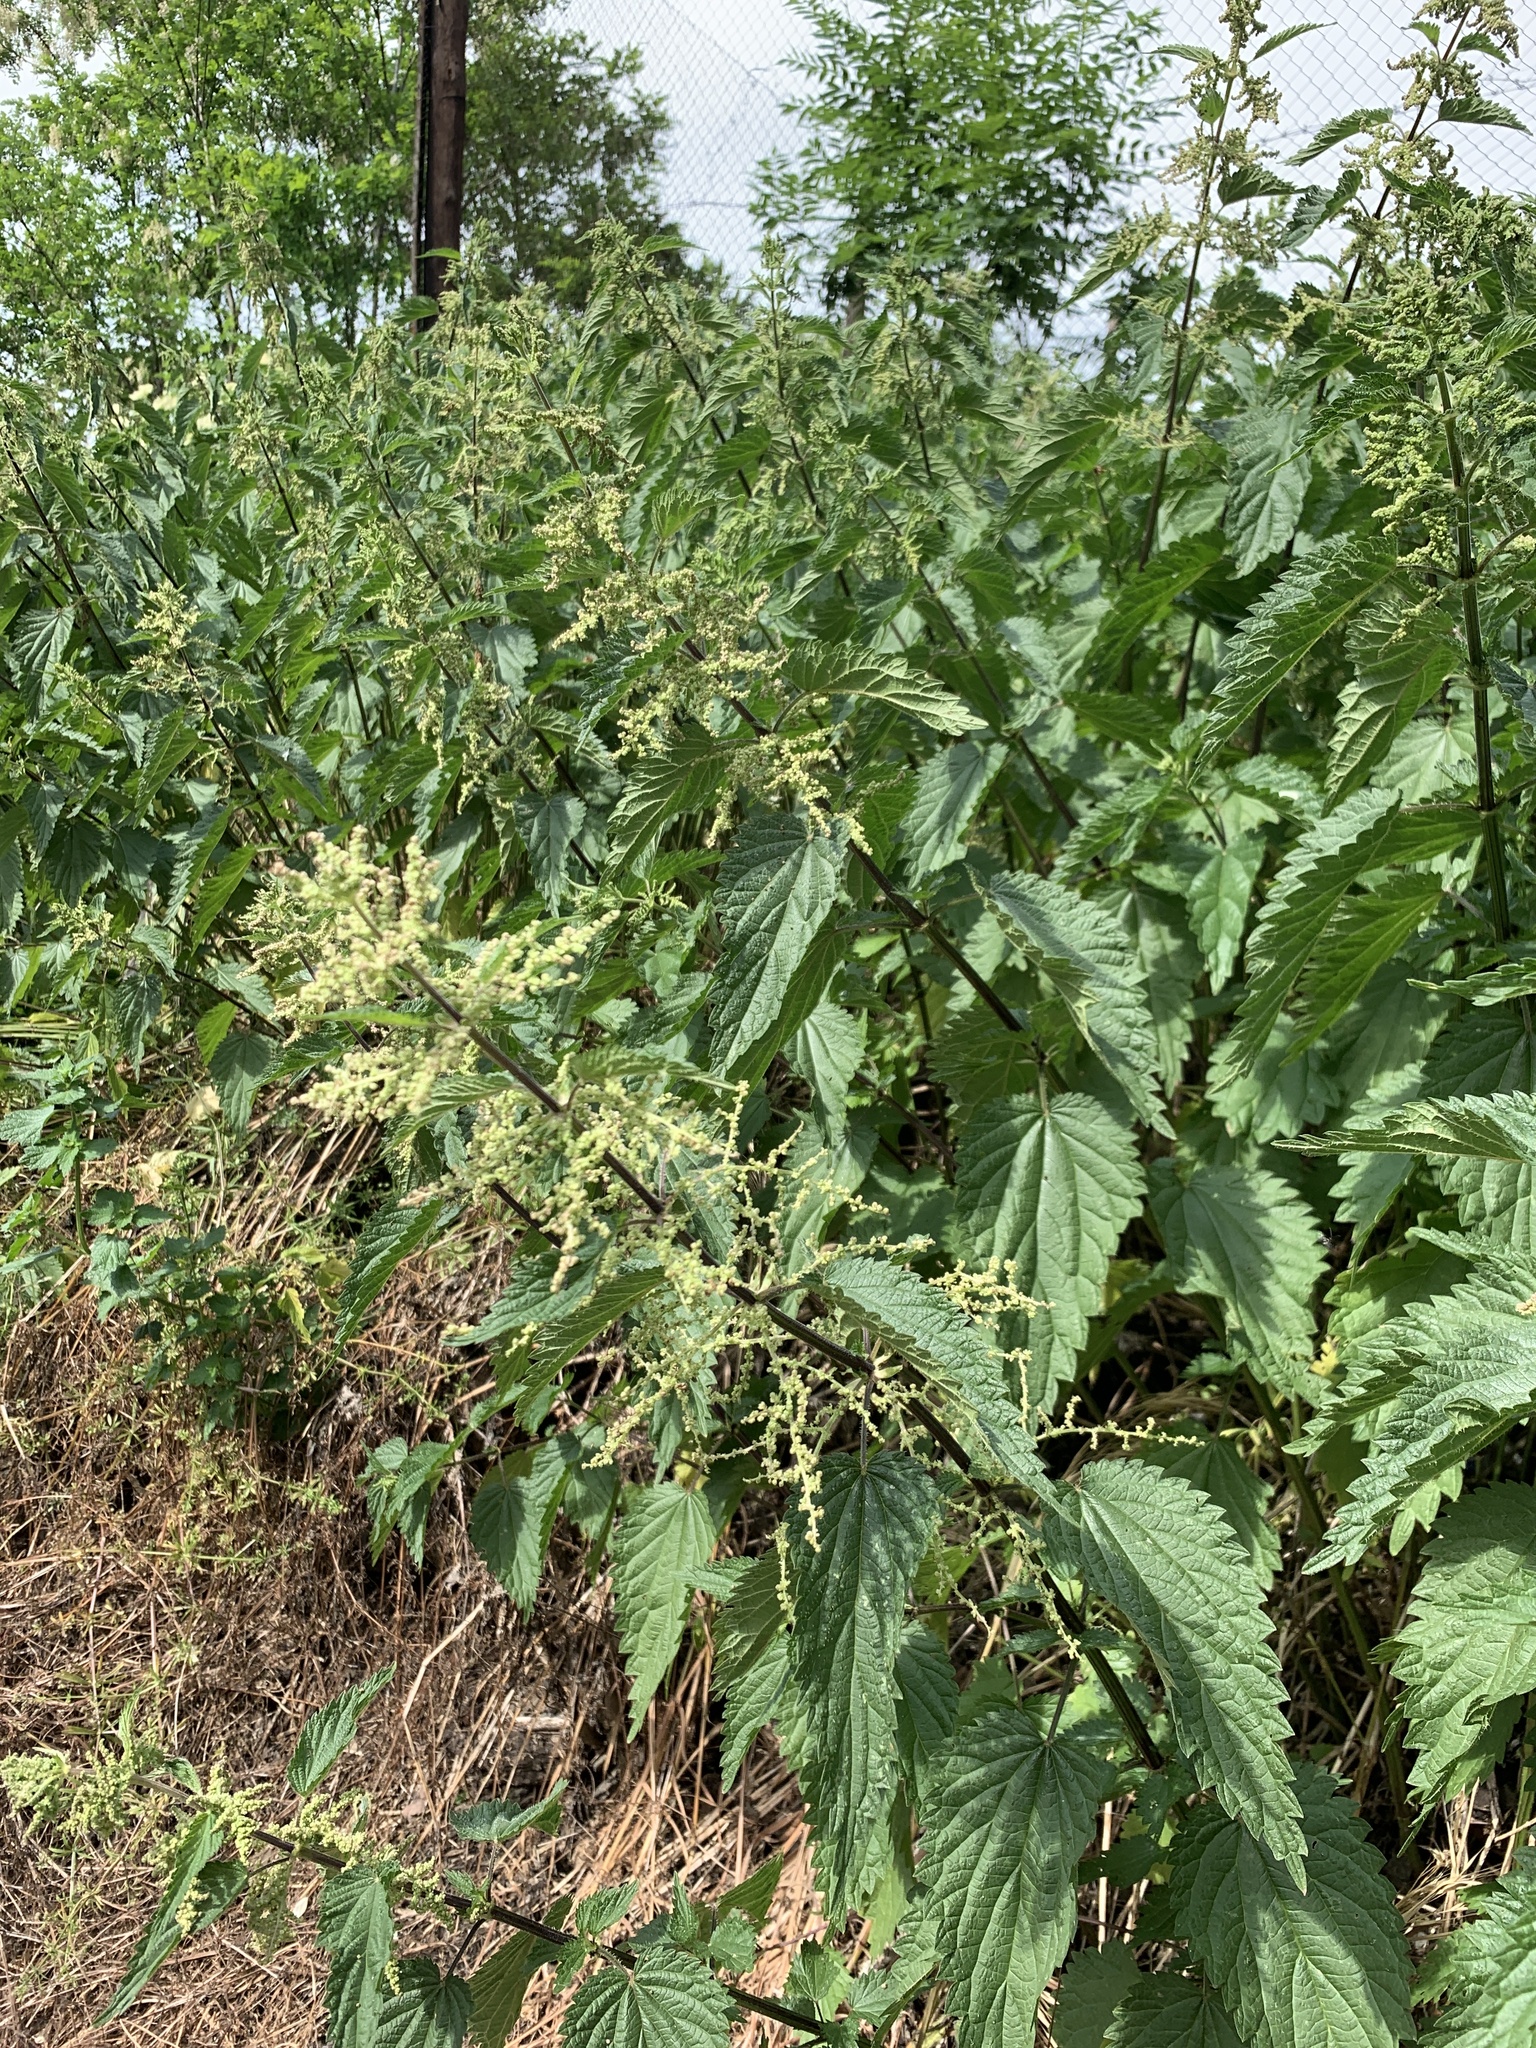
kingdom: Plantae
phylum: Tracheophyta
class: Magnoliopsida
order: Rosales
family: Urticaceae
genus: Urtica
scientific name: Urtica dioica
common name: Common nettle
